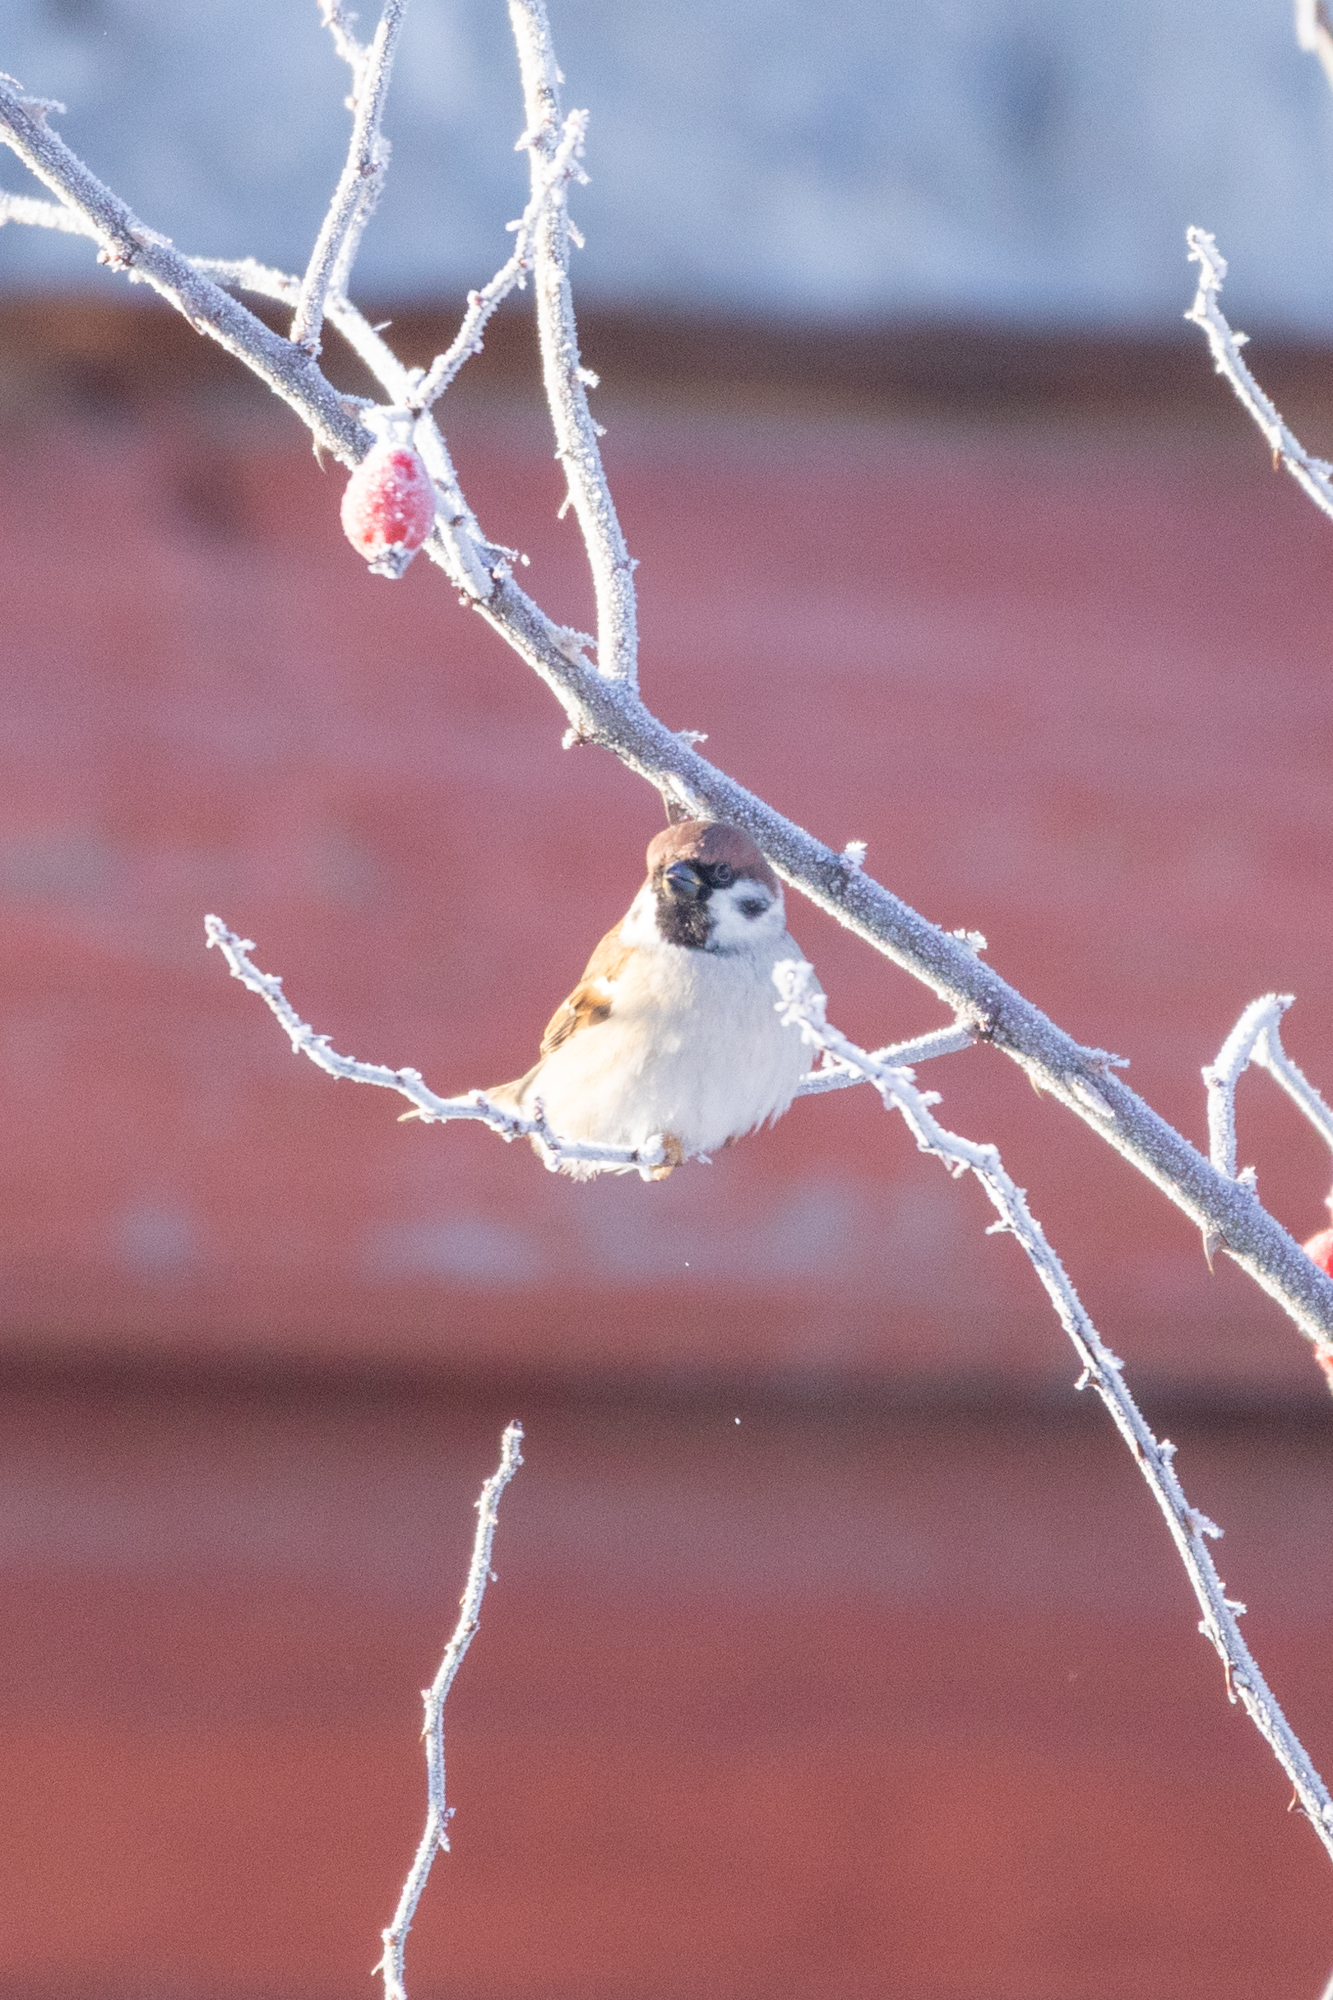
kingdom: Animalia
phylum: Chordata
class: Aves
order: Passeriformes
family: Passeridae
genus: Passer
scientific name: Passer montanus
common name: Eurasian tree sparrow
